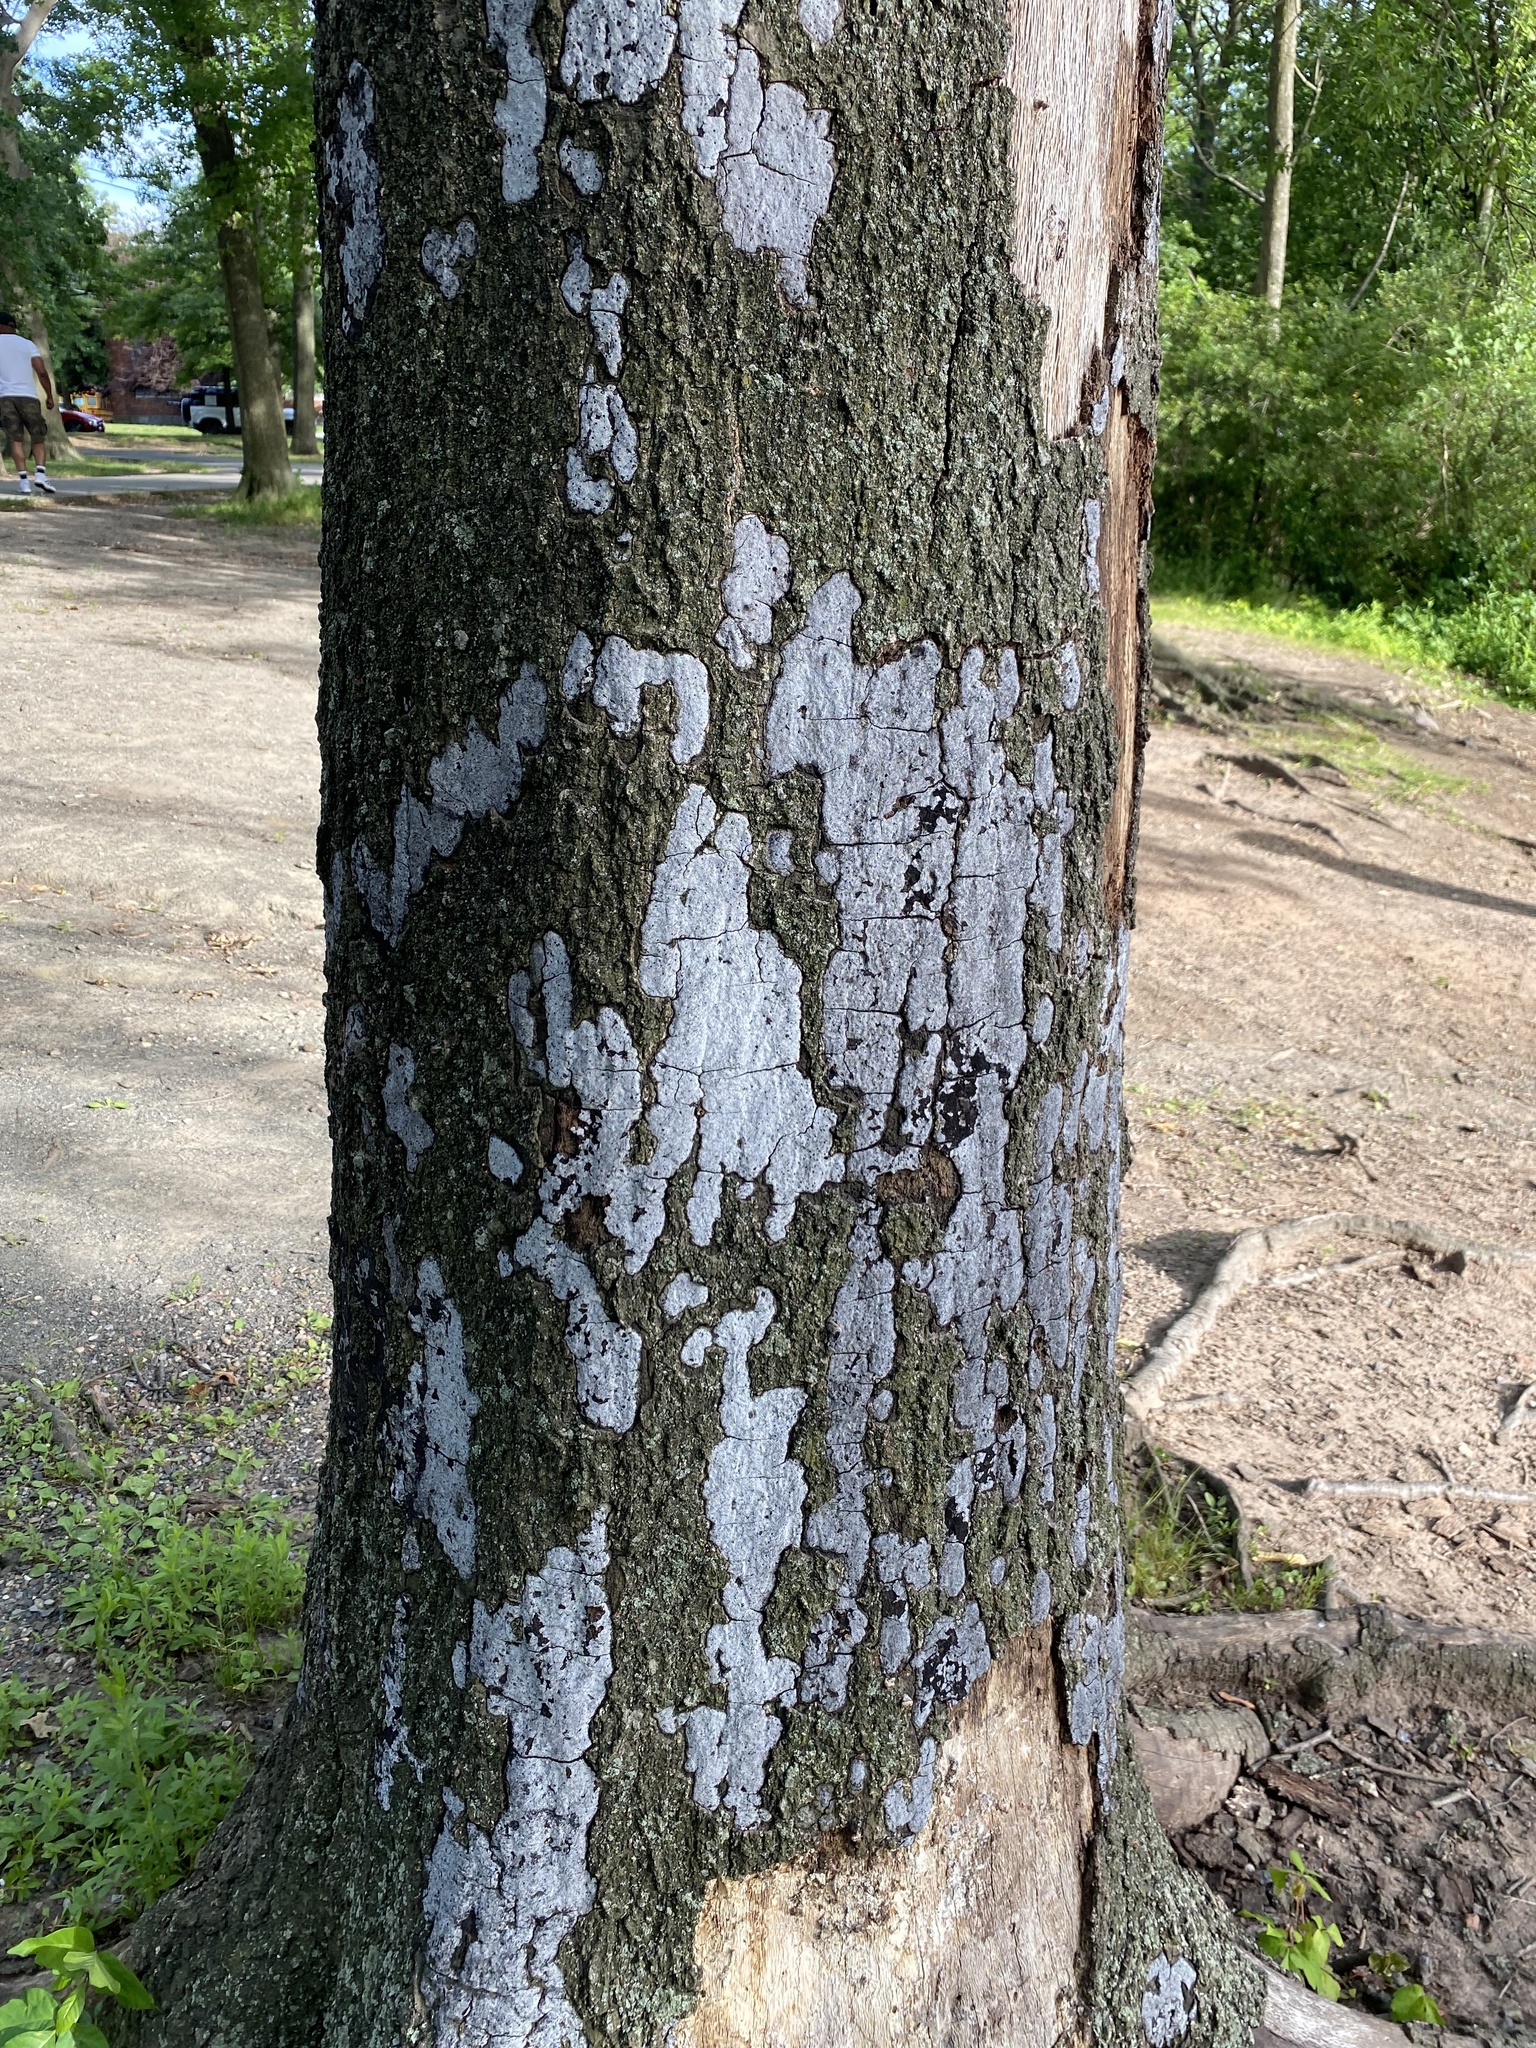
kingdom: Fungi
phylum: Ascomycota
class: Sordariomycetes
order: Xylariales
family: Graphostromataceae
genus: Biscogniauxia
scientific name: Biscogniauxia atropunctata
